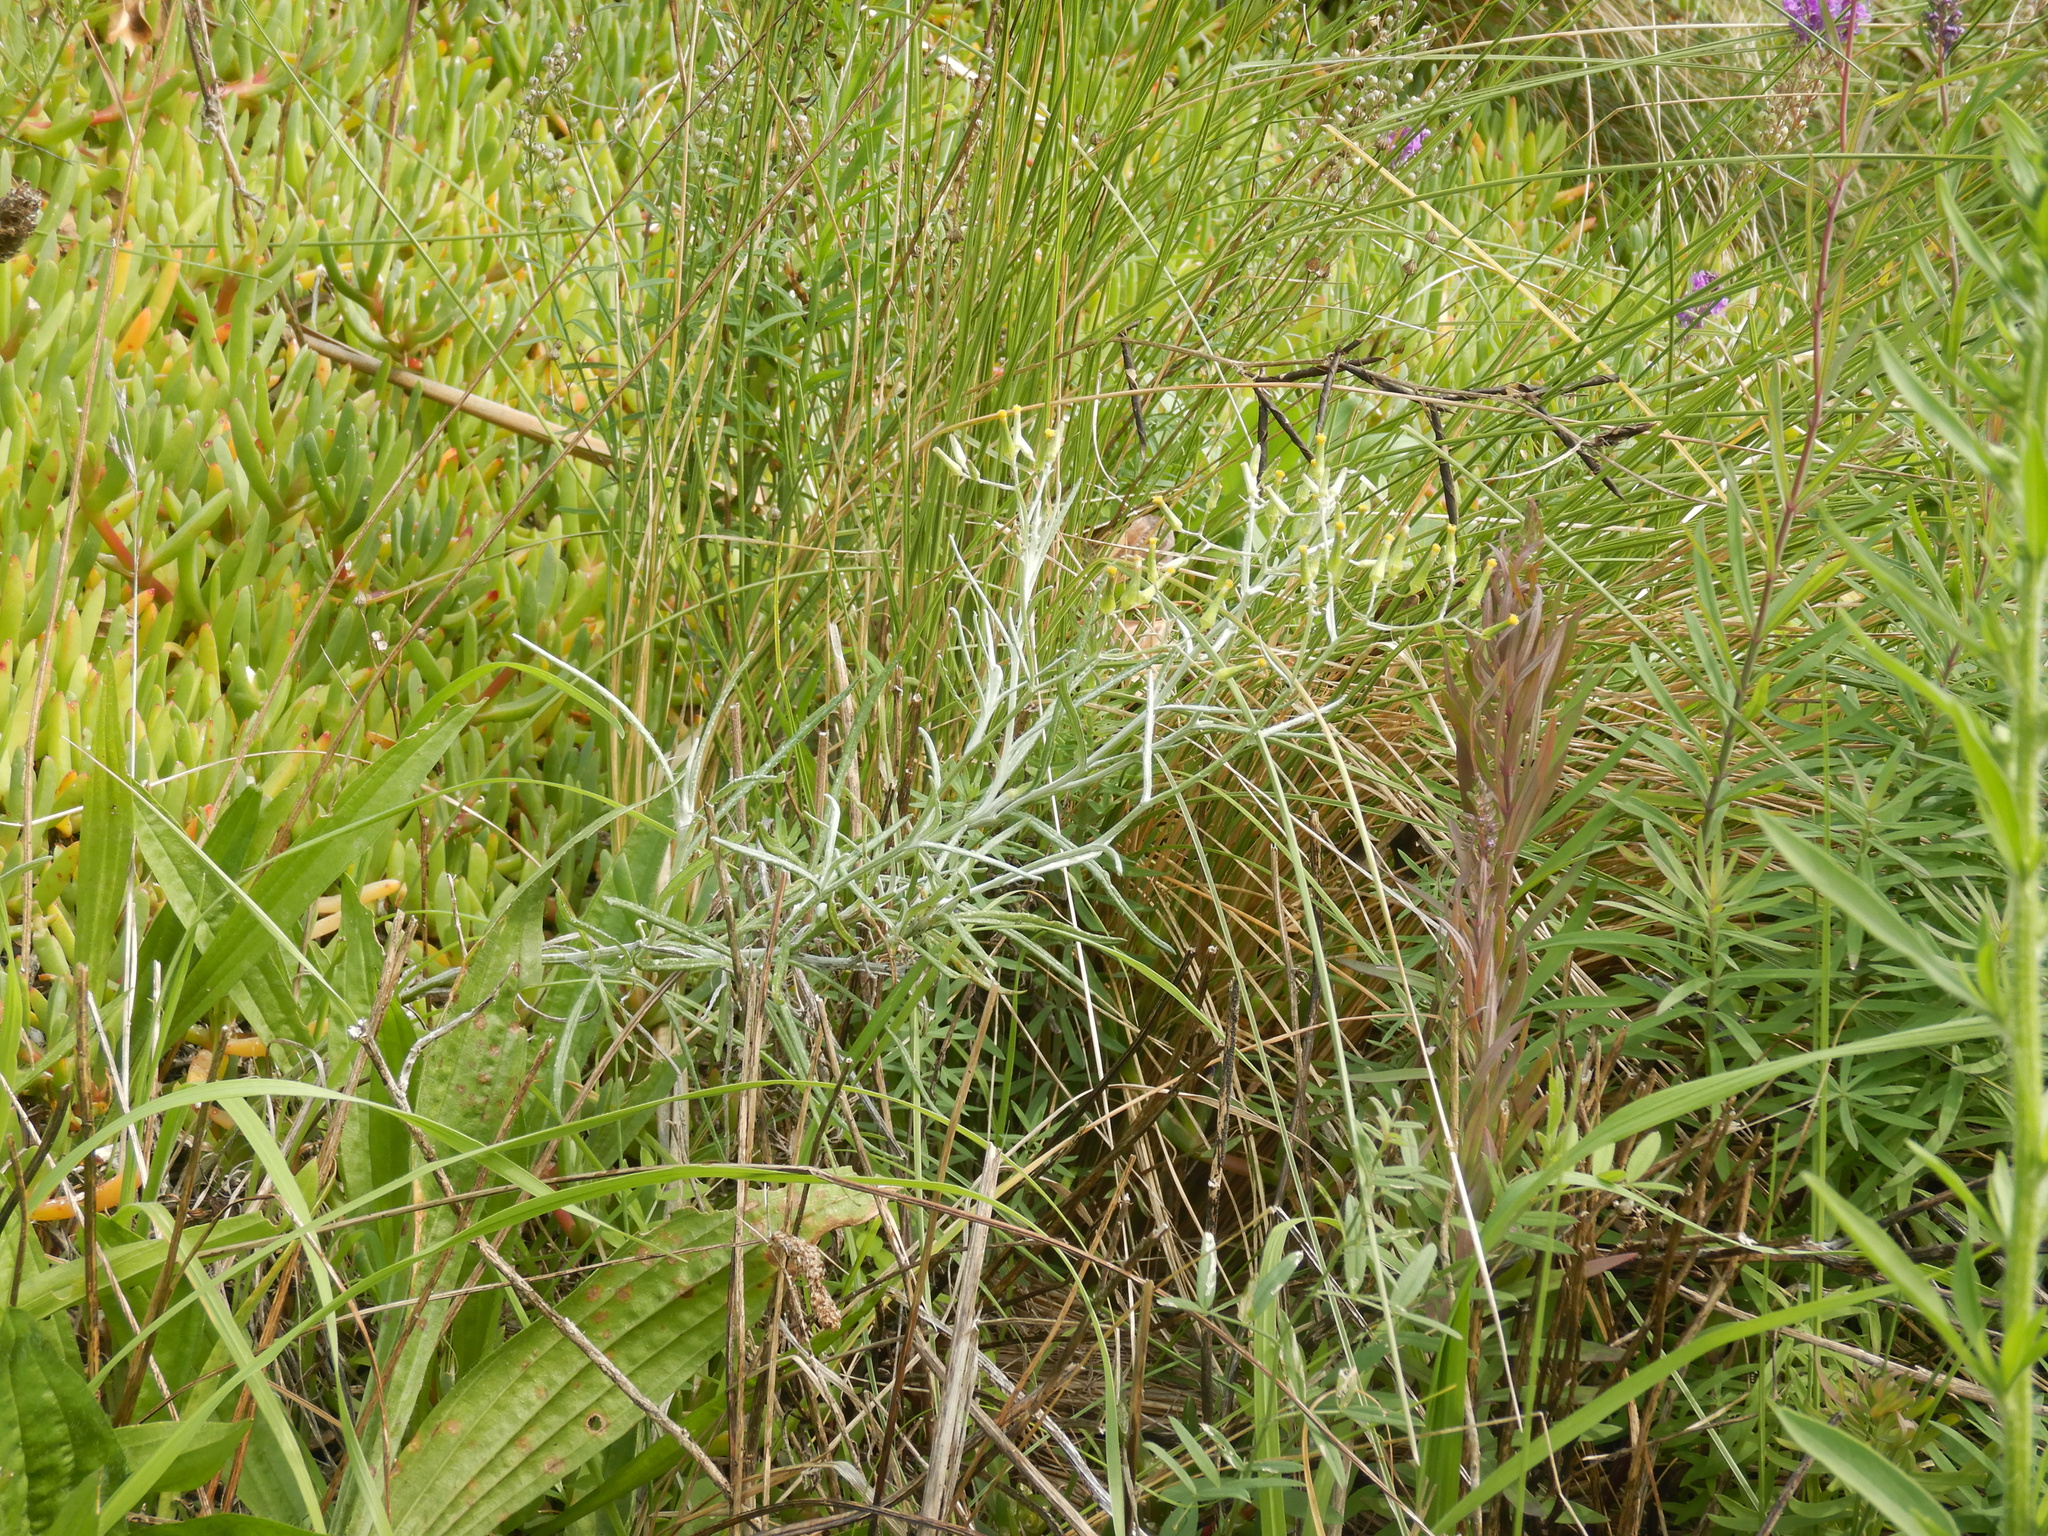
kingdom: Plantae
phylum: Tracheophyta
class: Magnoliopsida
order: Asterales
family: Asteraceae
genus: Senecio
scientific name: Senecio quadridentatus
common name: Cotton fireweed
